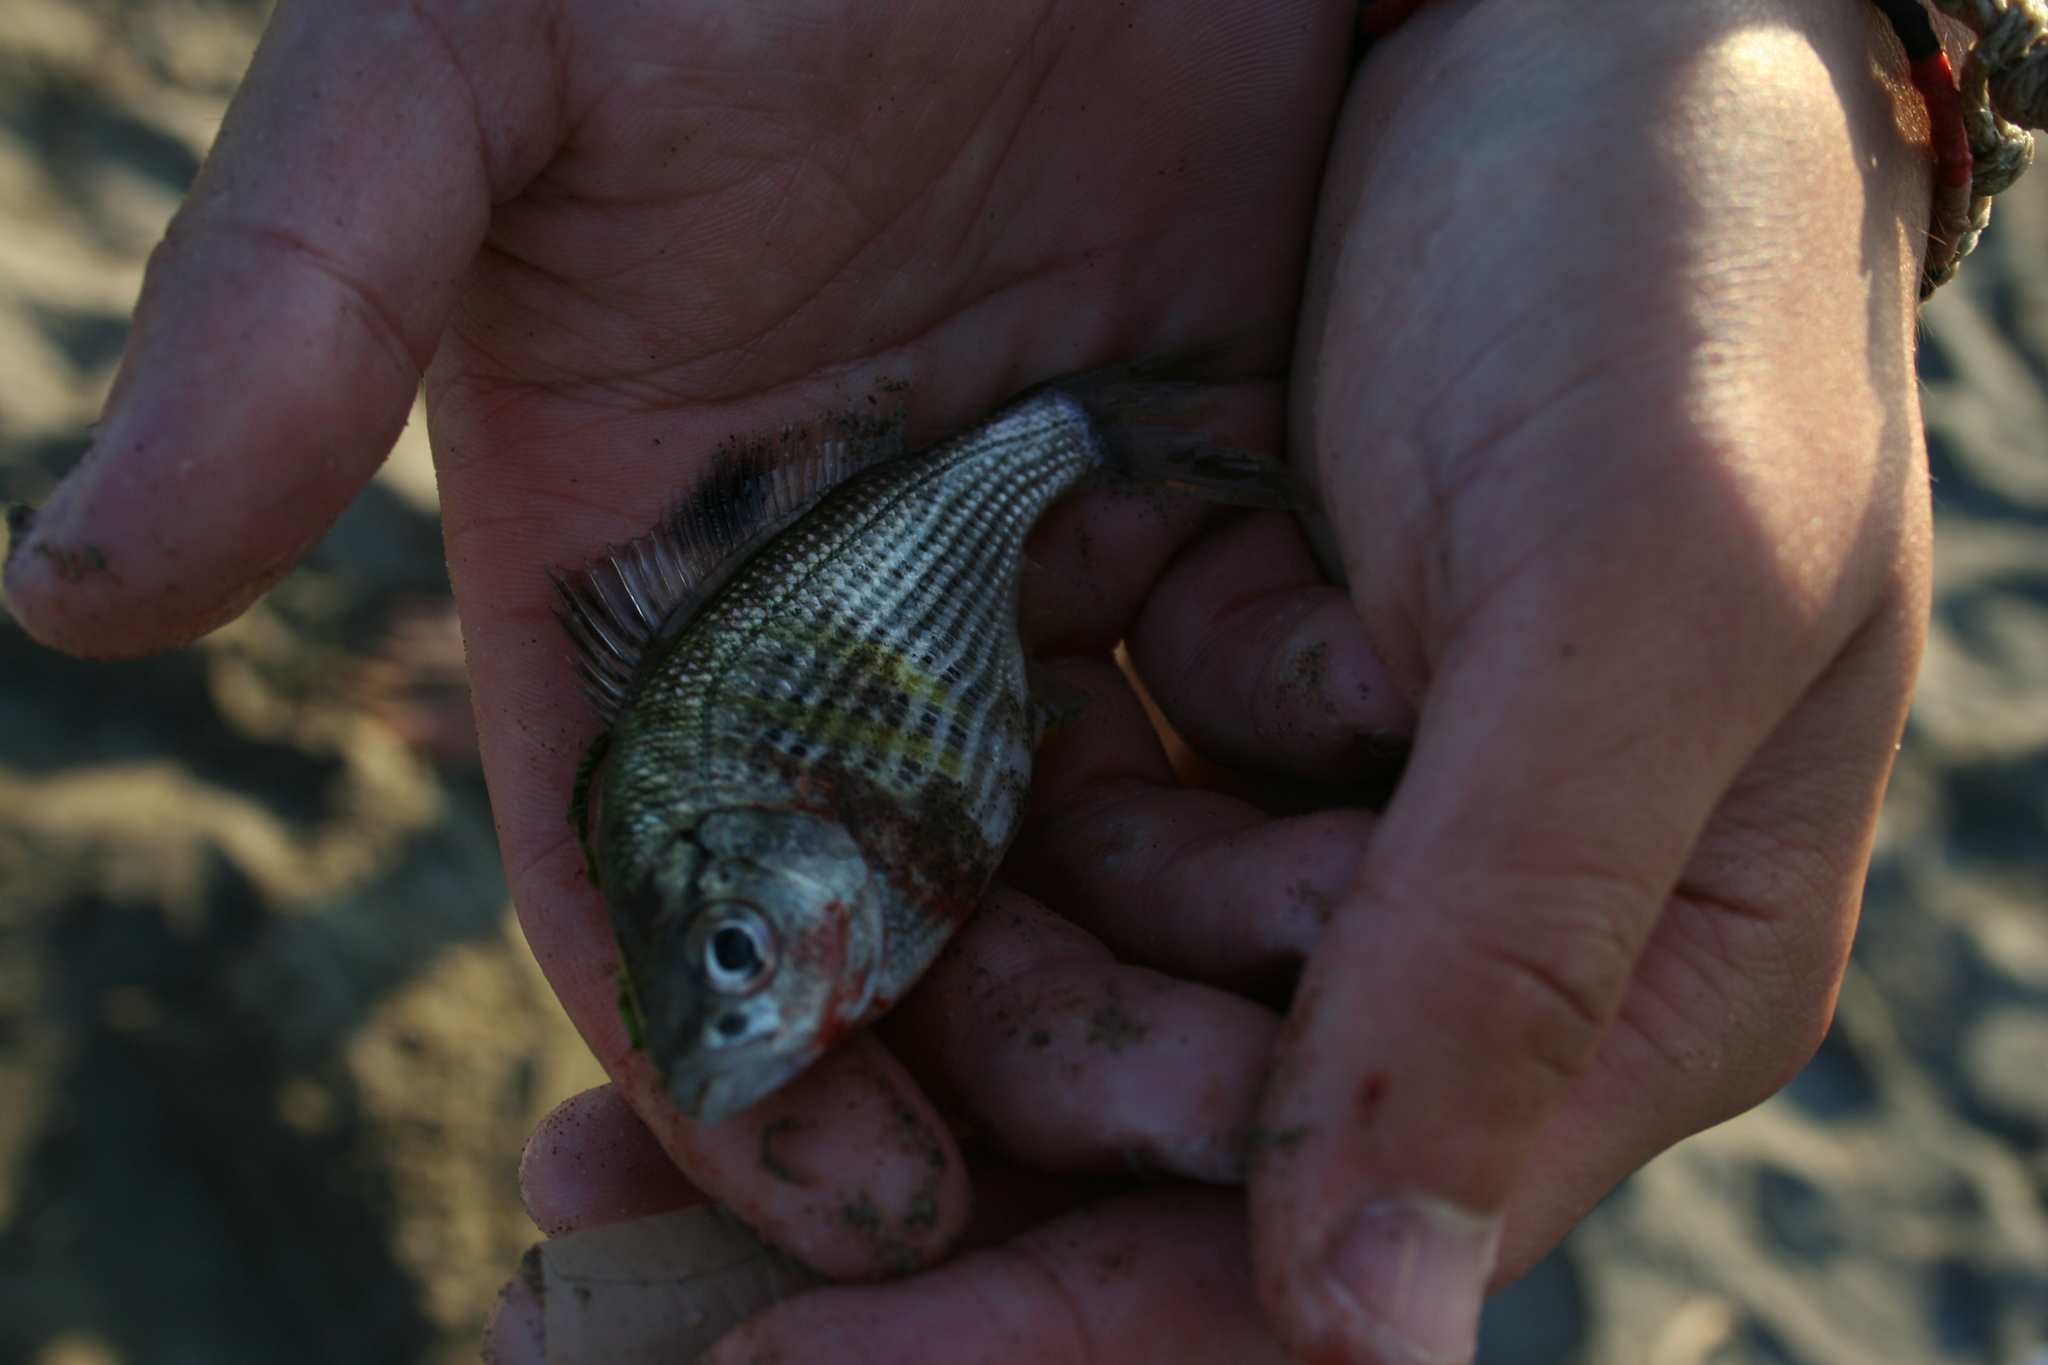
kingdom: Animalia
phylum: Chordata
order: Perciformes
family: Embiotocidae
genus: Cymatogaster
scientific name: Cymatogaster aggregata
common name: Shiner perch
